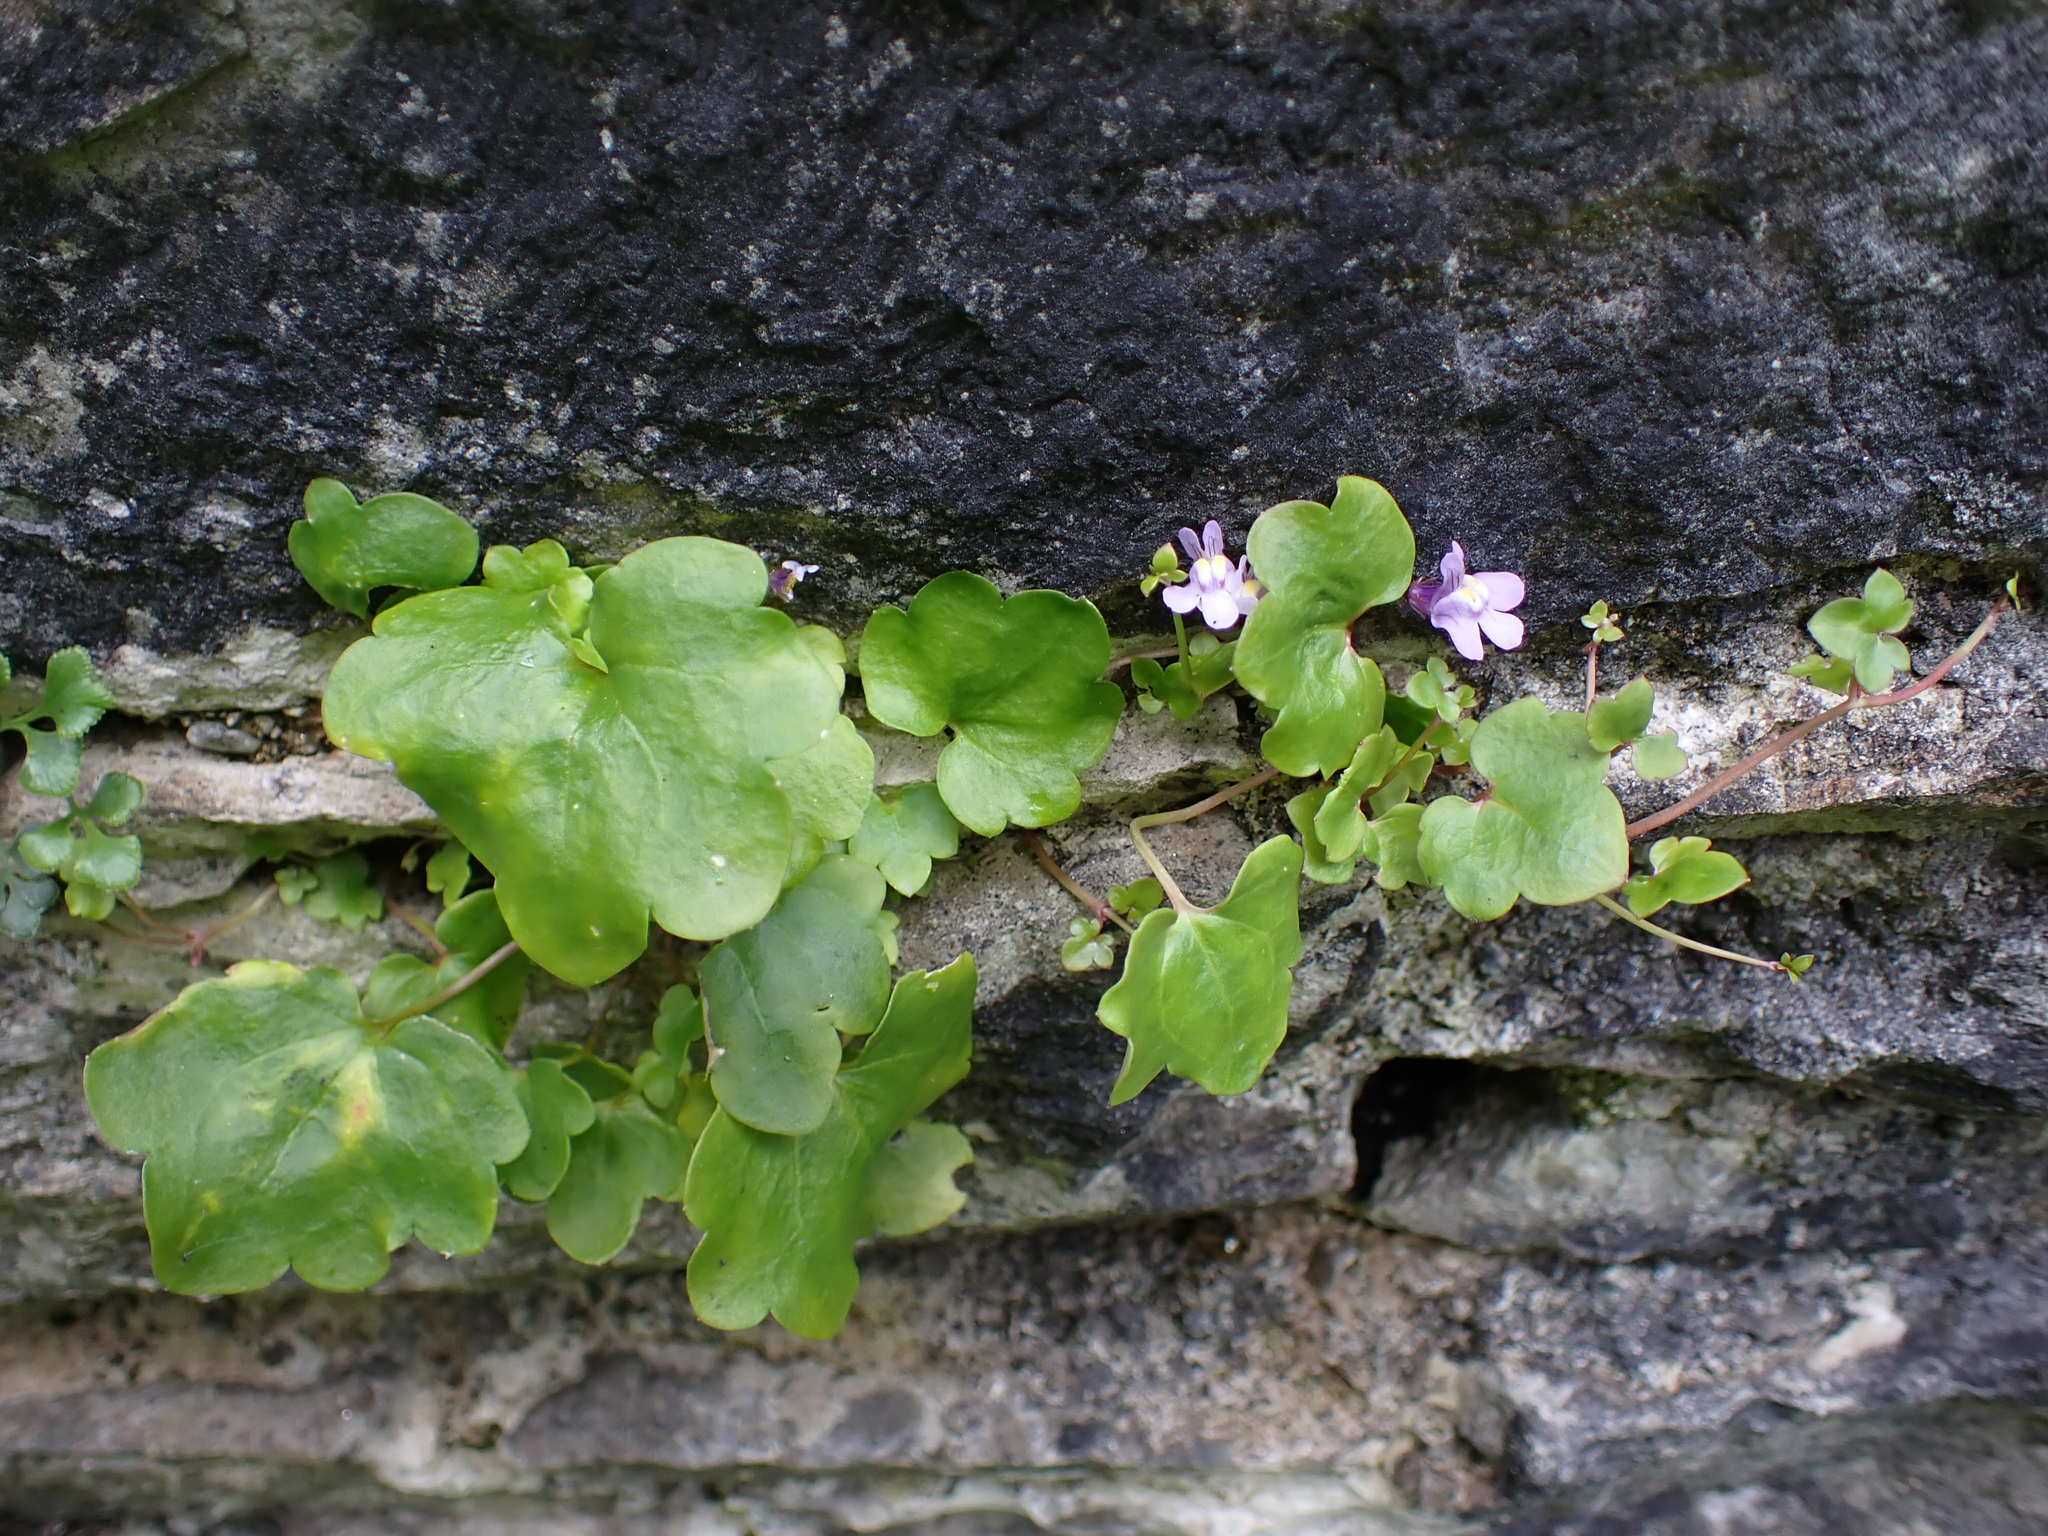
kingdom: Plantae
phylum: Tracheophyta
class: Magnoliopsida
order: Lamiales
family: Plantaginaceae
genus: Cymbalaria
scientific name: Cymbalaria muralis
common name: Ivy-leaved toadflax
